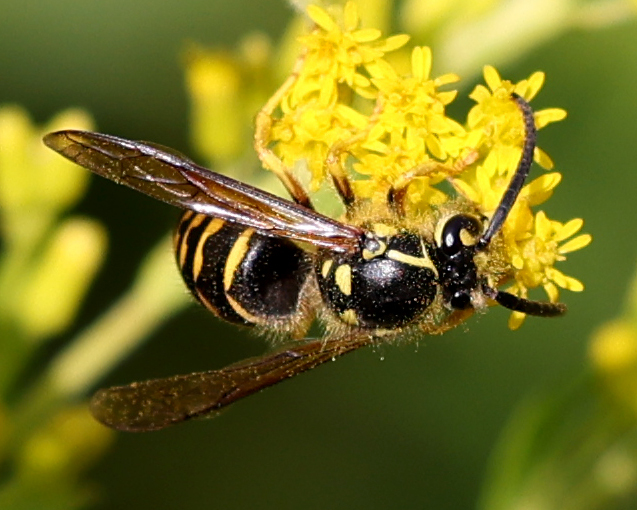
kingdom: Animalia
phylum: Arthropoda
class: Insecta
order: Hymenoptera
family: Vespidae
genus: Dolichovespula
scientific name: Dolichovespula arenaria
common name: Aerial yellowjacket
